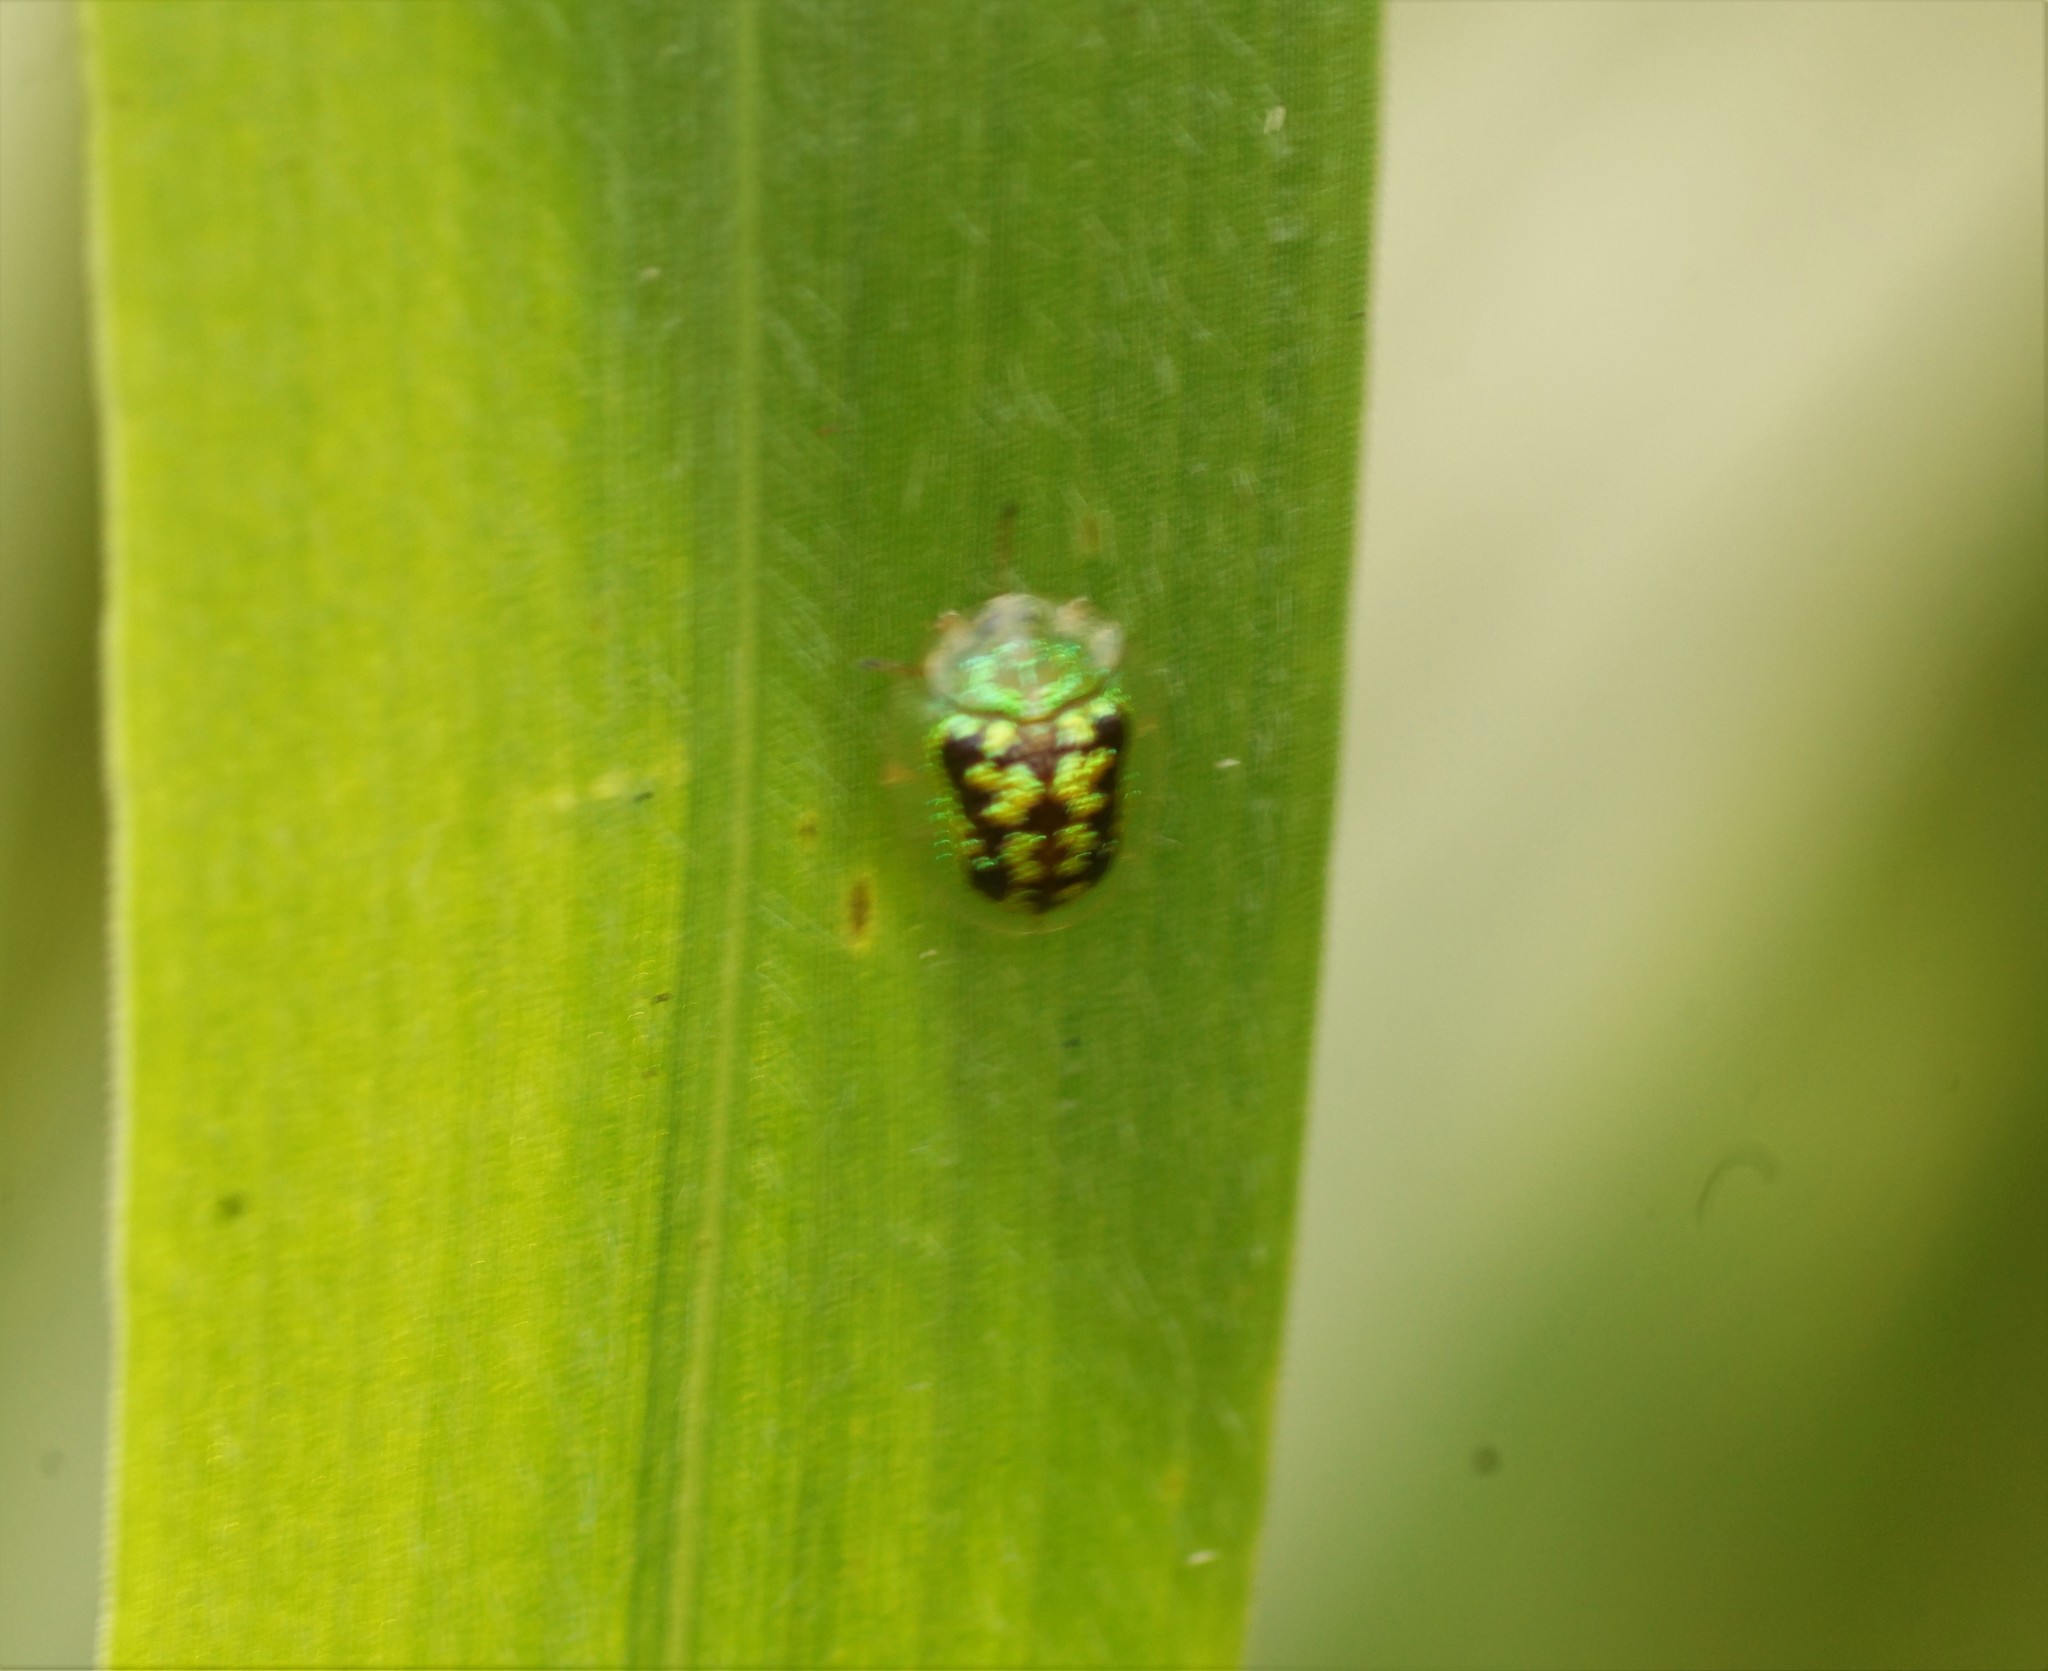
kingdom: Animalia
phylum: Arthropoda
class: Insecta
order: Coleoptera
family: Chrysomelidae
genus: Cassida
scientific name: Cassida diomma
